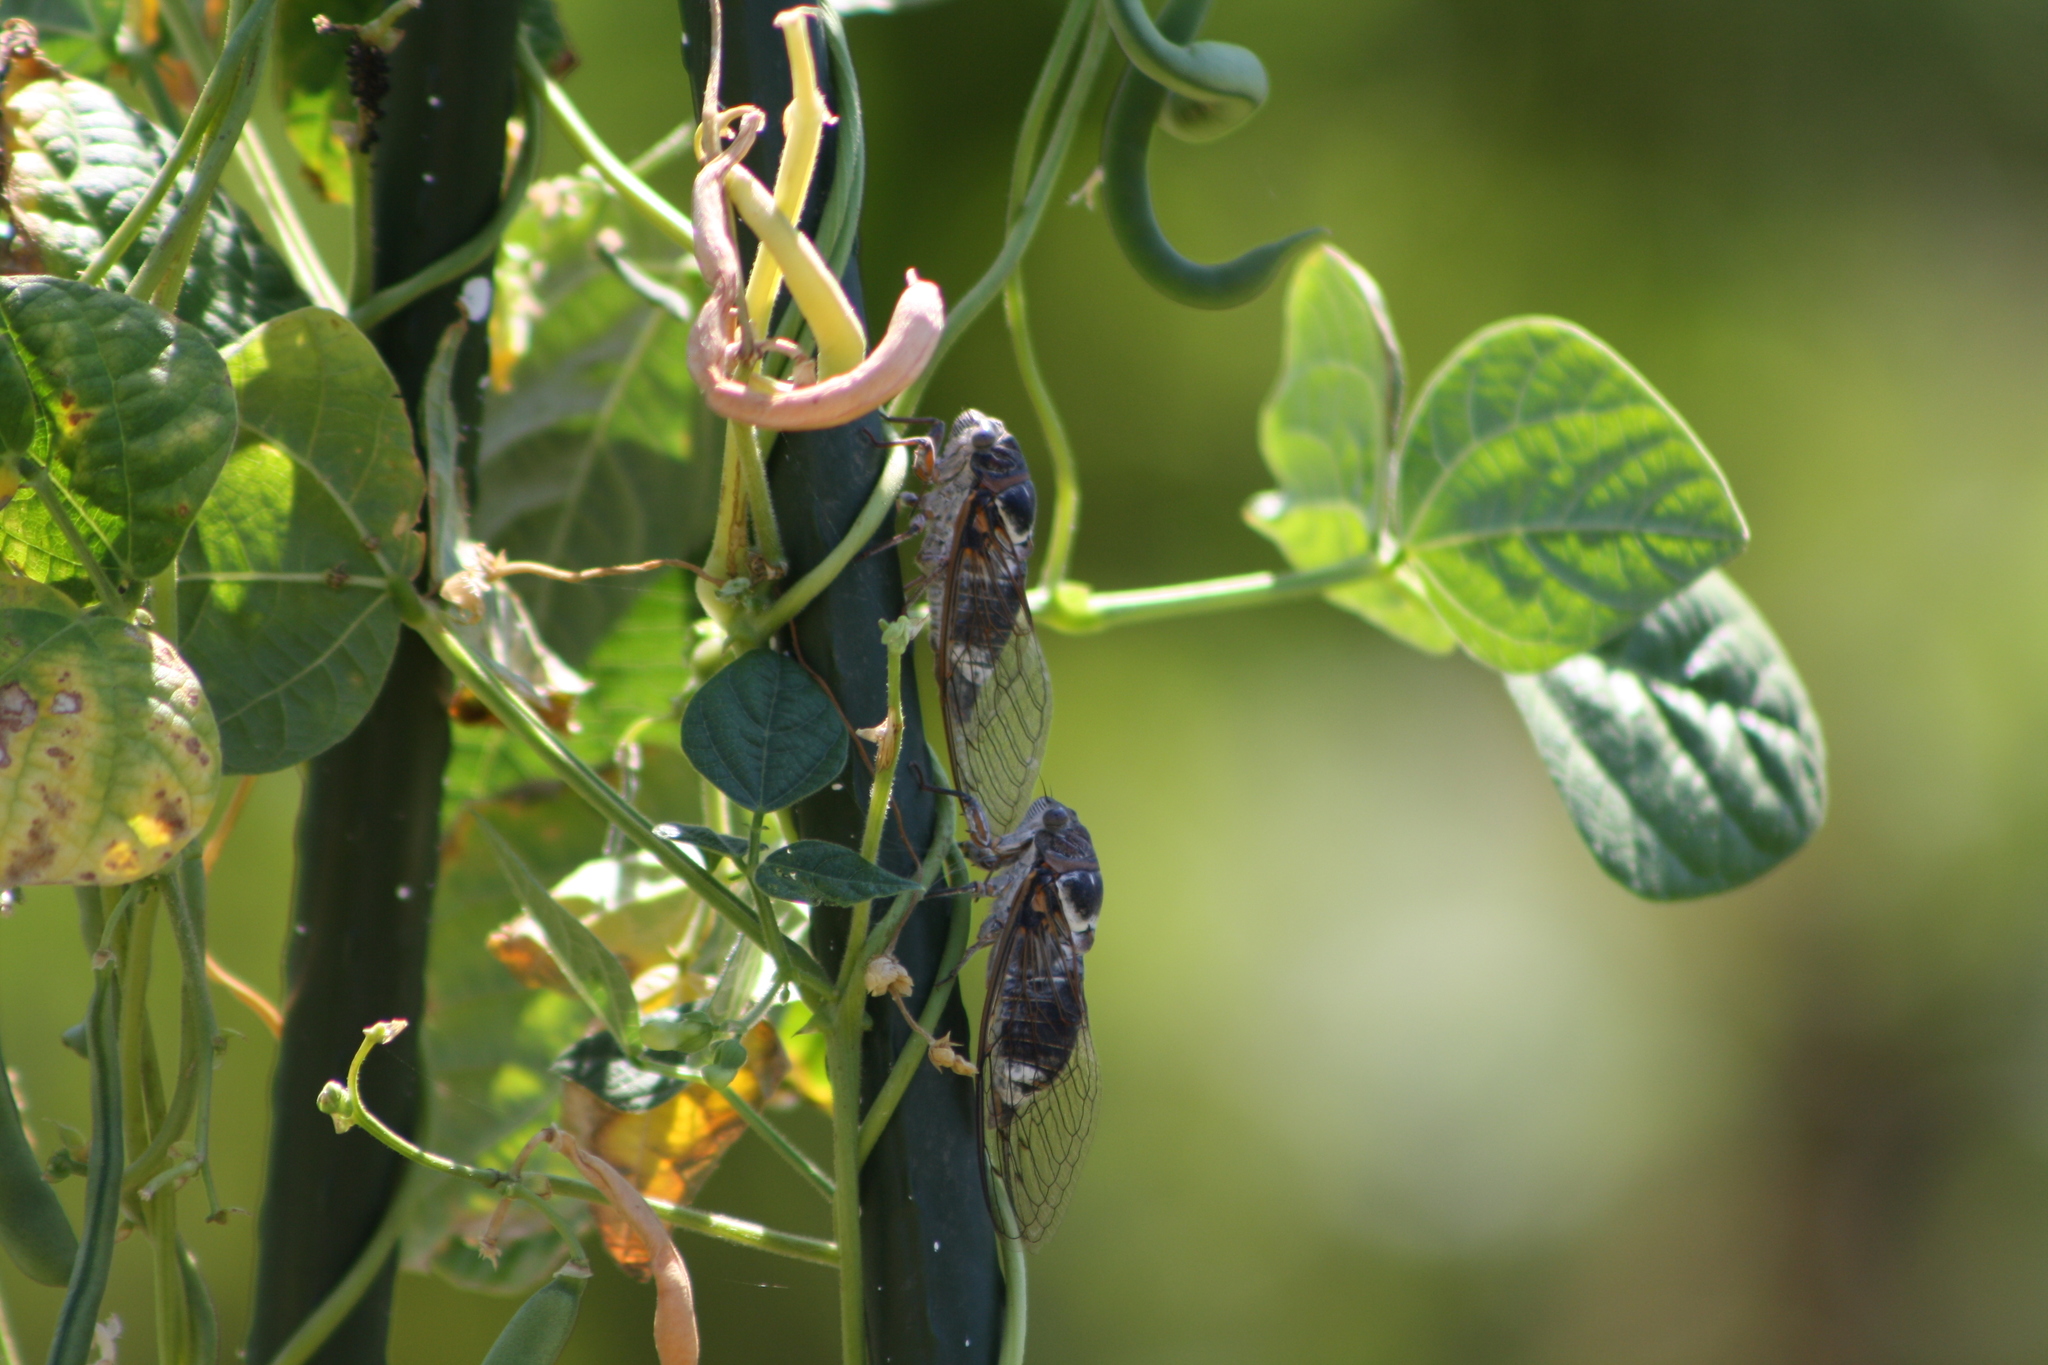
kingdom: Animalia
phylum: Arthropoda
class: Insecta
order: Hemiptera
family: Cicadidae
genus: Lyristes
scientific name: Lyristes plebejus
